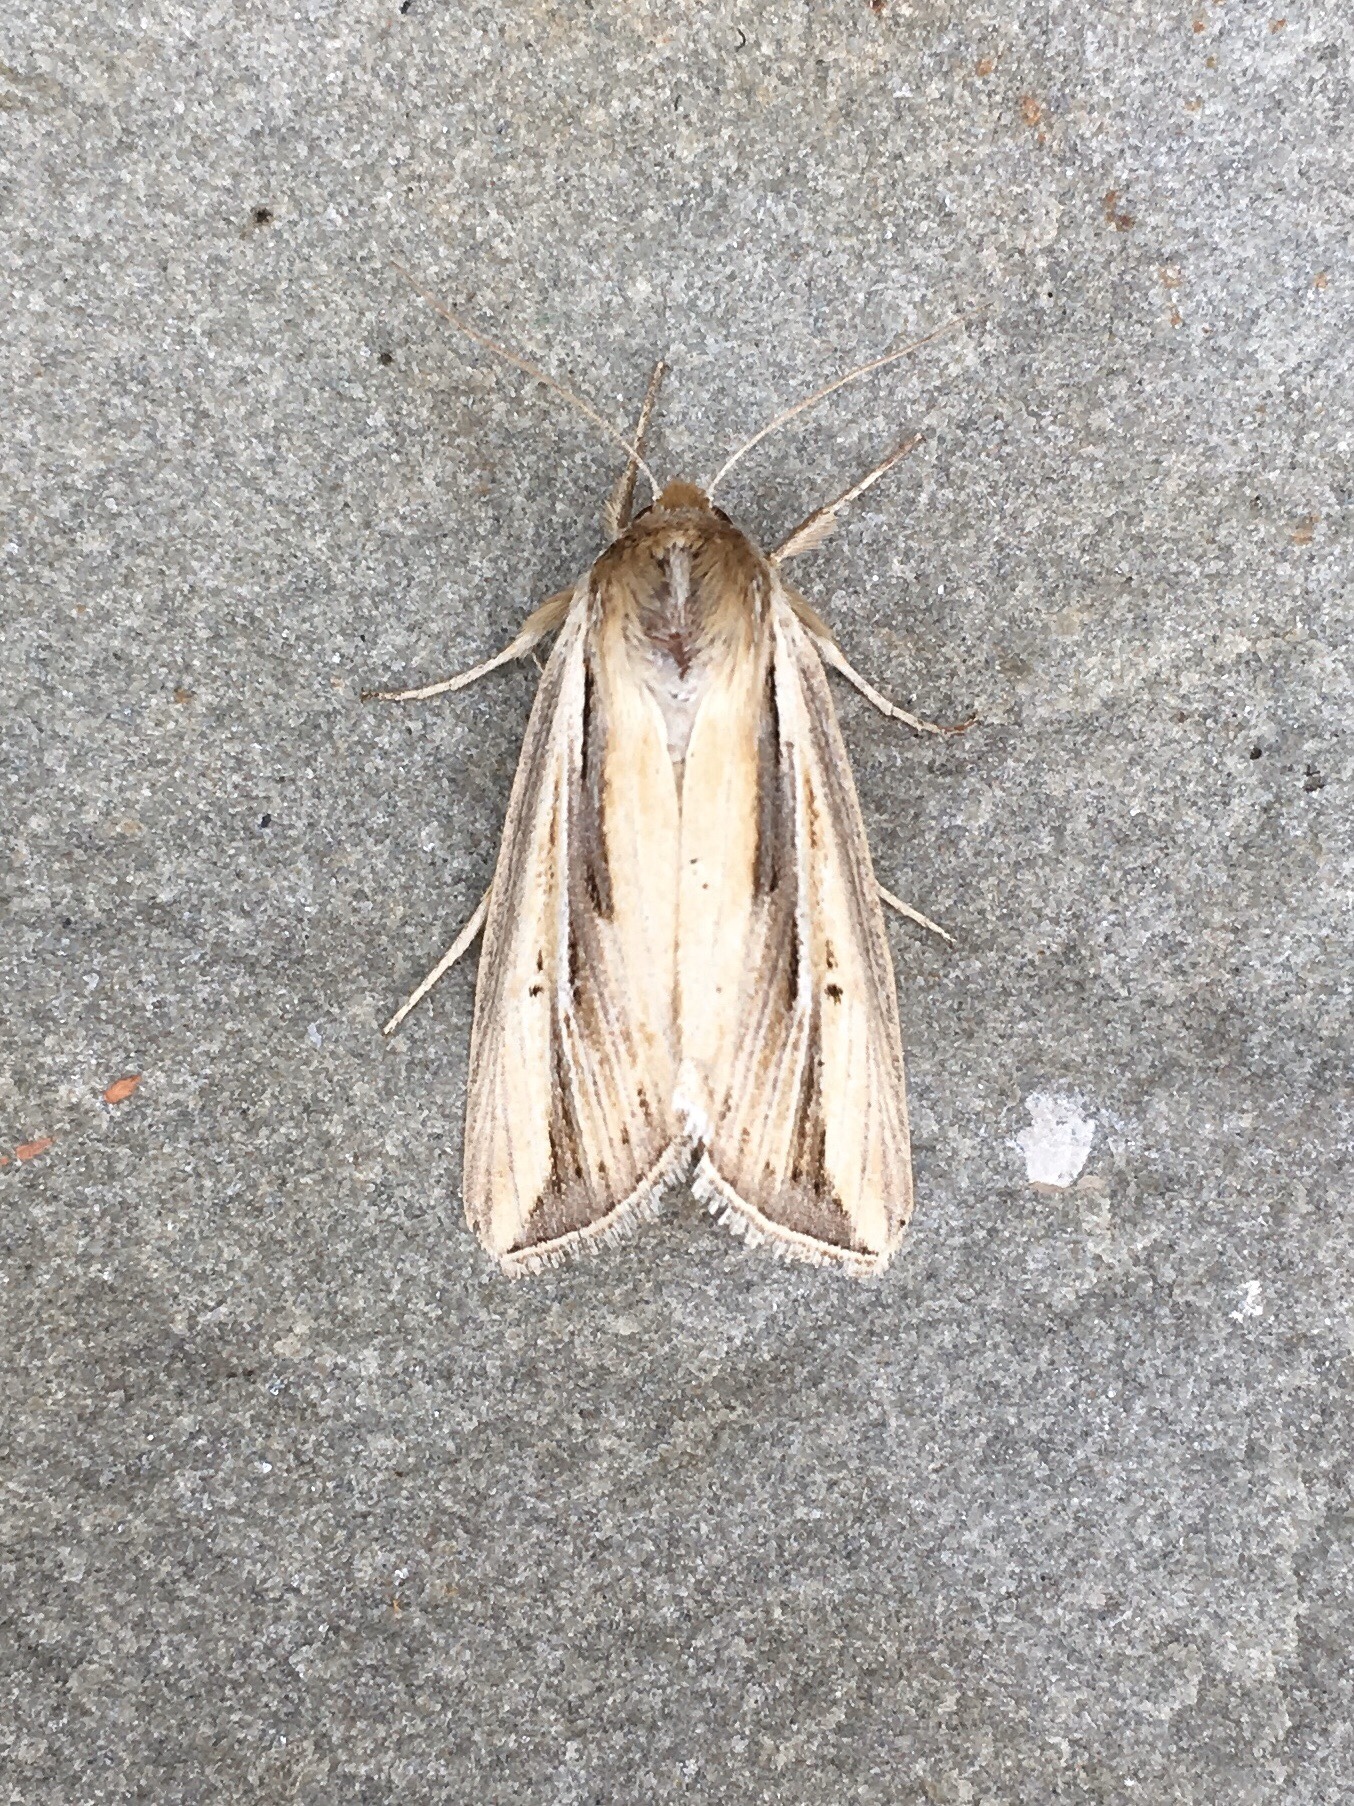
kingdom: Animalia
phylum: Arthropoda
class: Insecta
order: Lepidoptera
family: Noctuidae
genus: Dargida
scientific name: Dargida diffusa
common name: Wheat head armyworm
